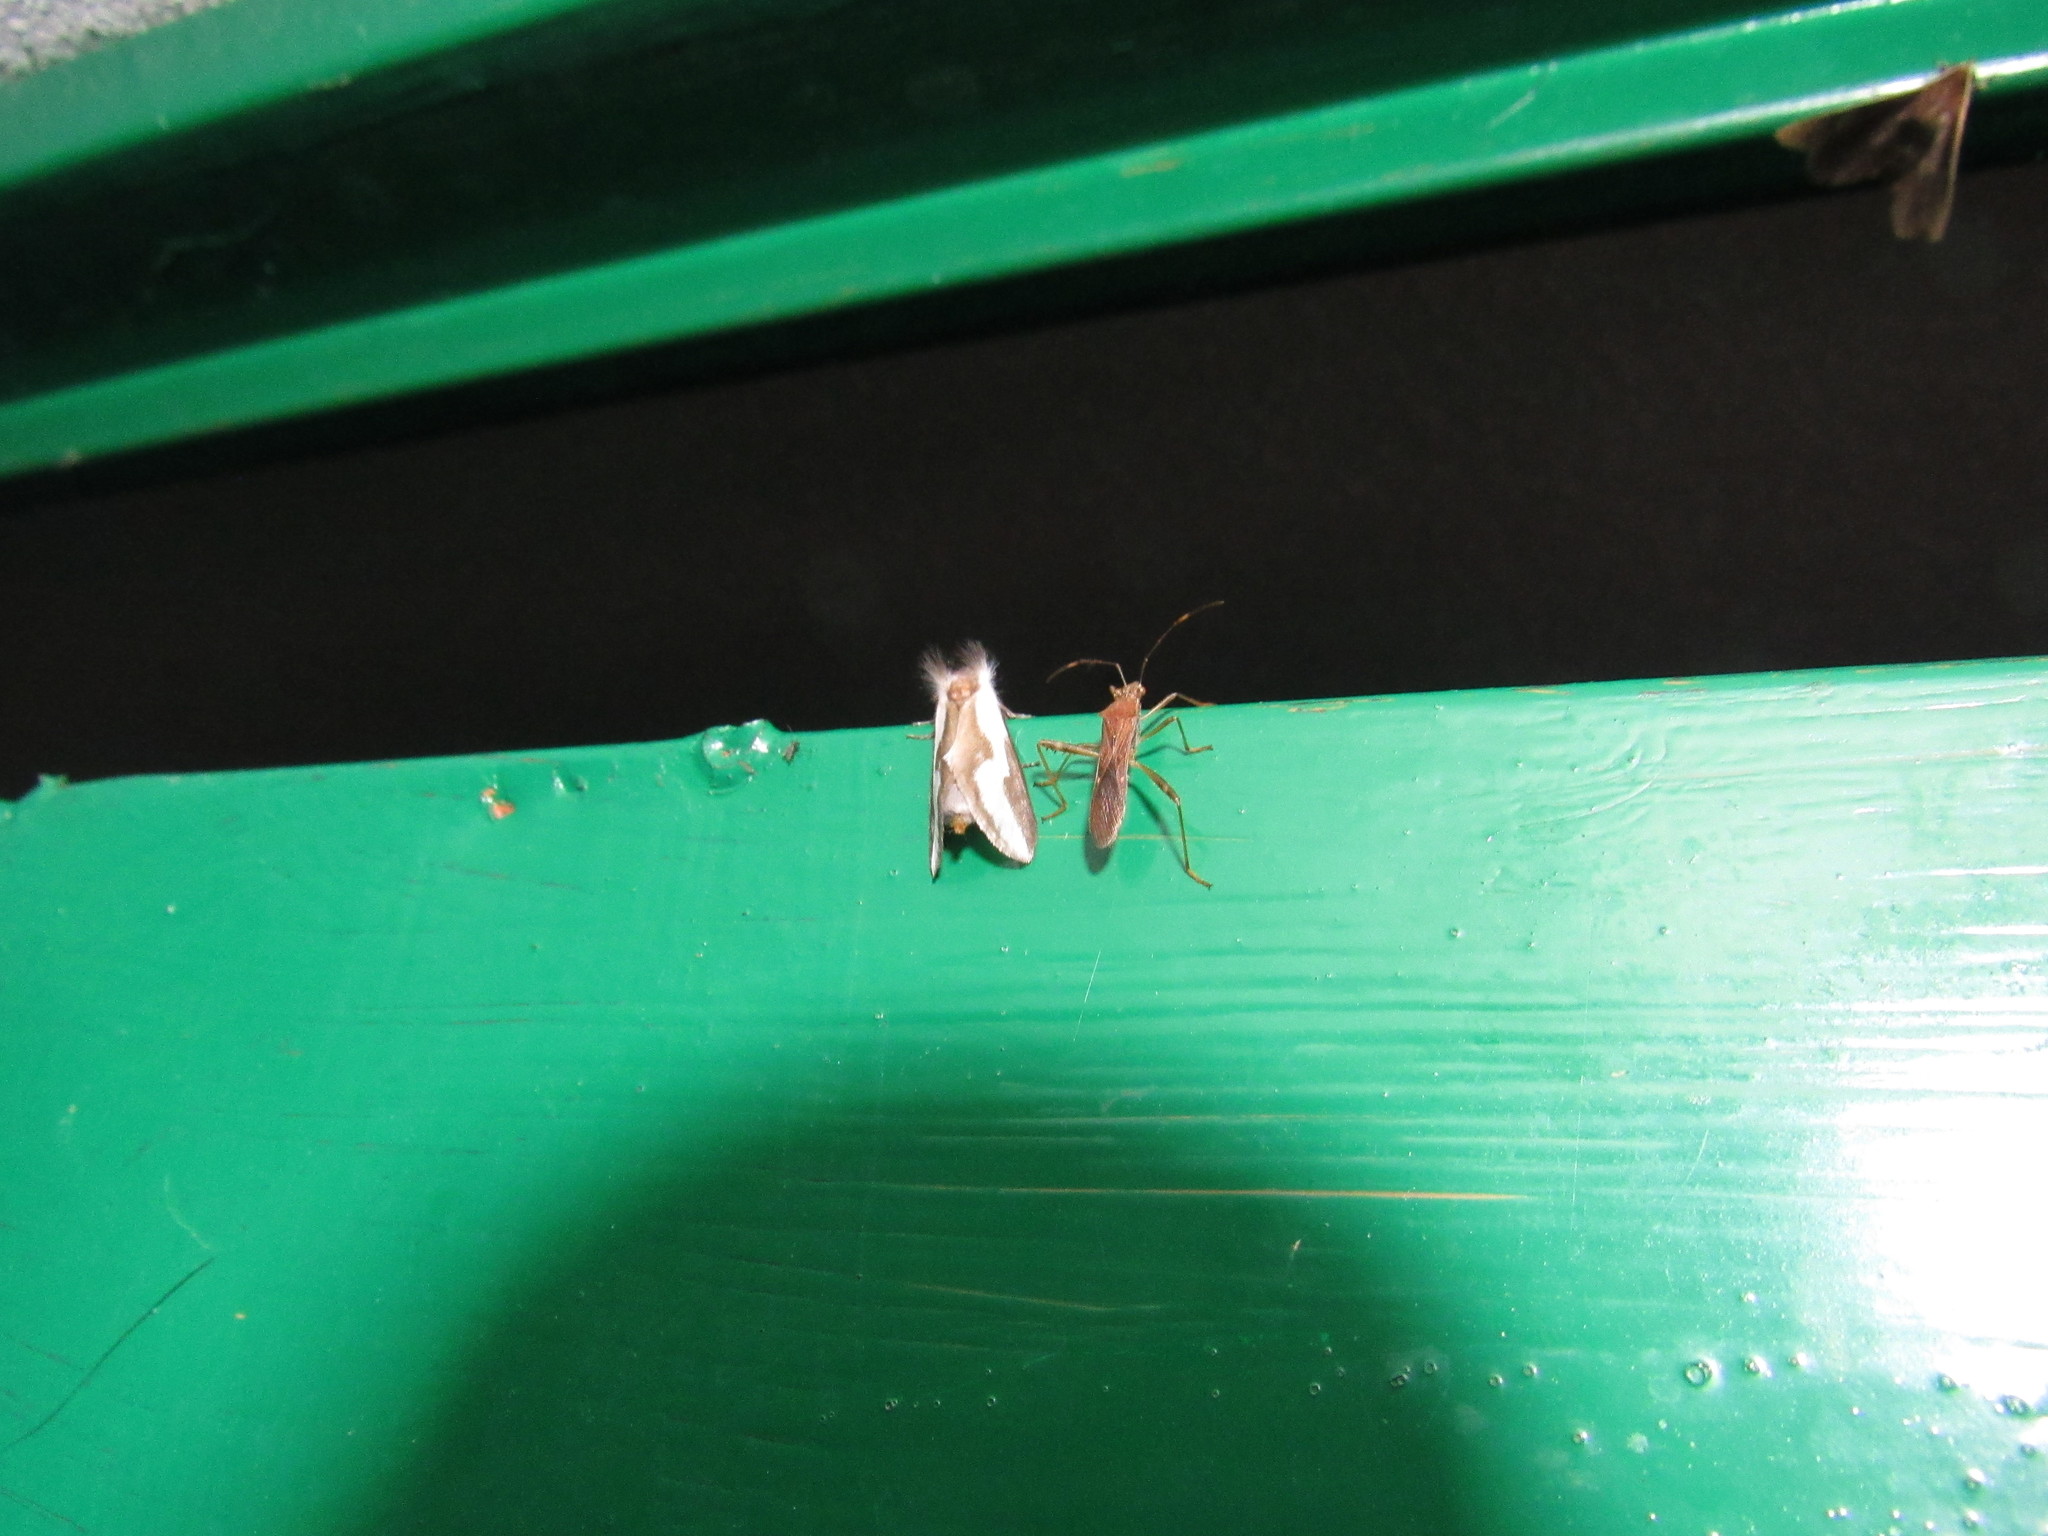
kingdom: Animalia
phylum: Arthropoda
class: Insecta
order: Lepidoptera
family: Megalopygidae
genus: Norape
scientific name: Norape tener
